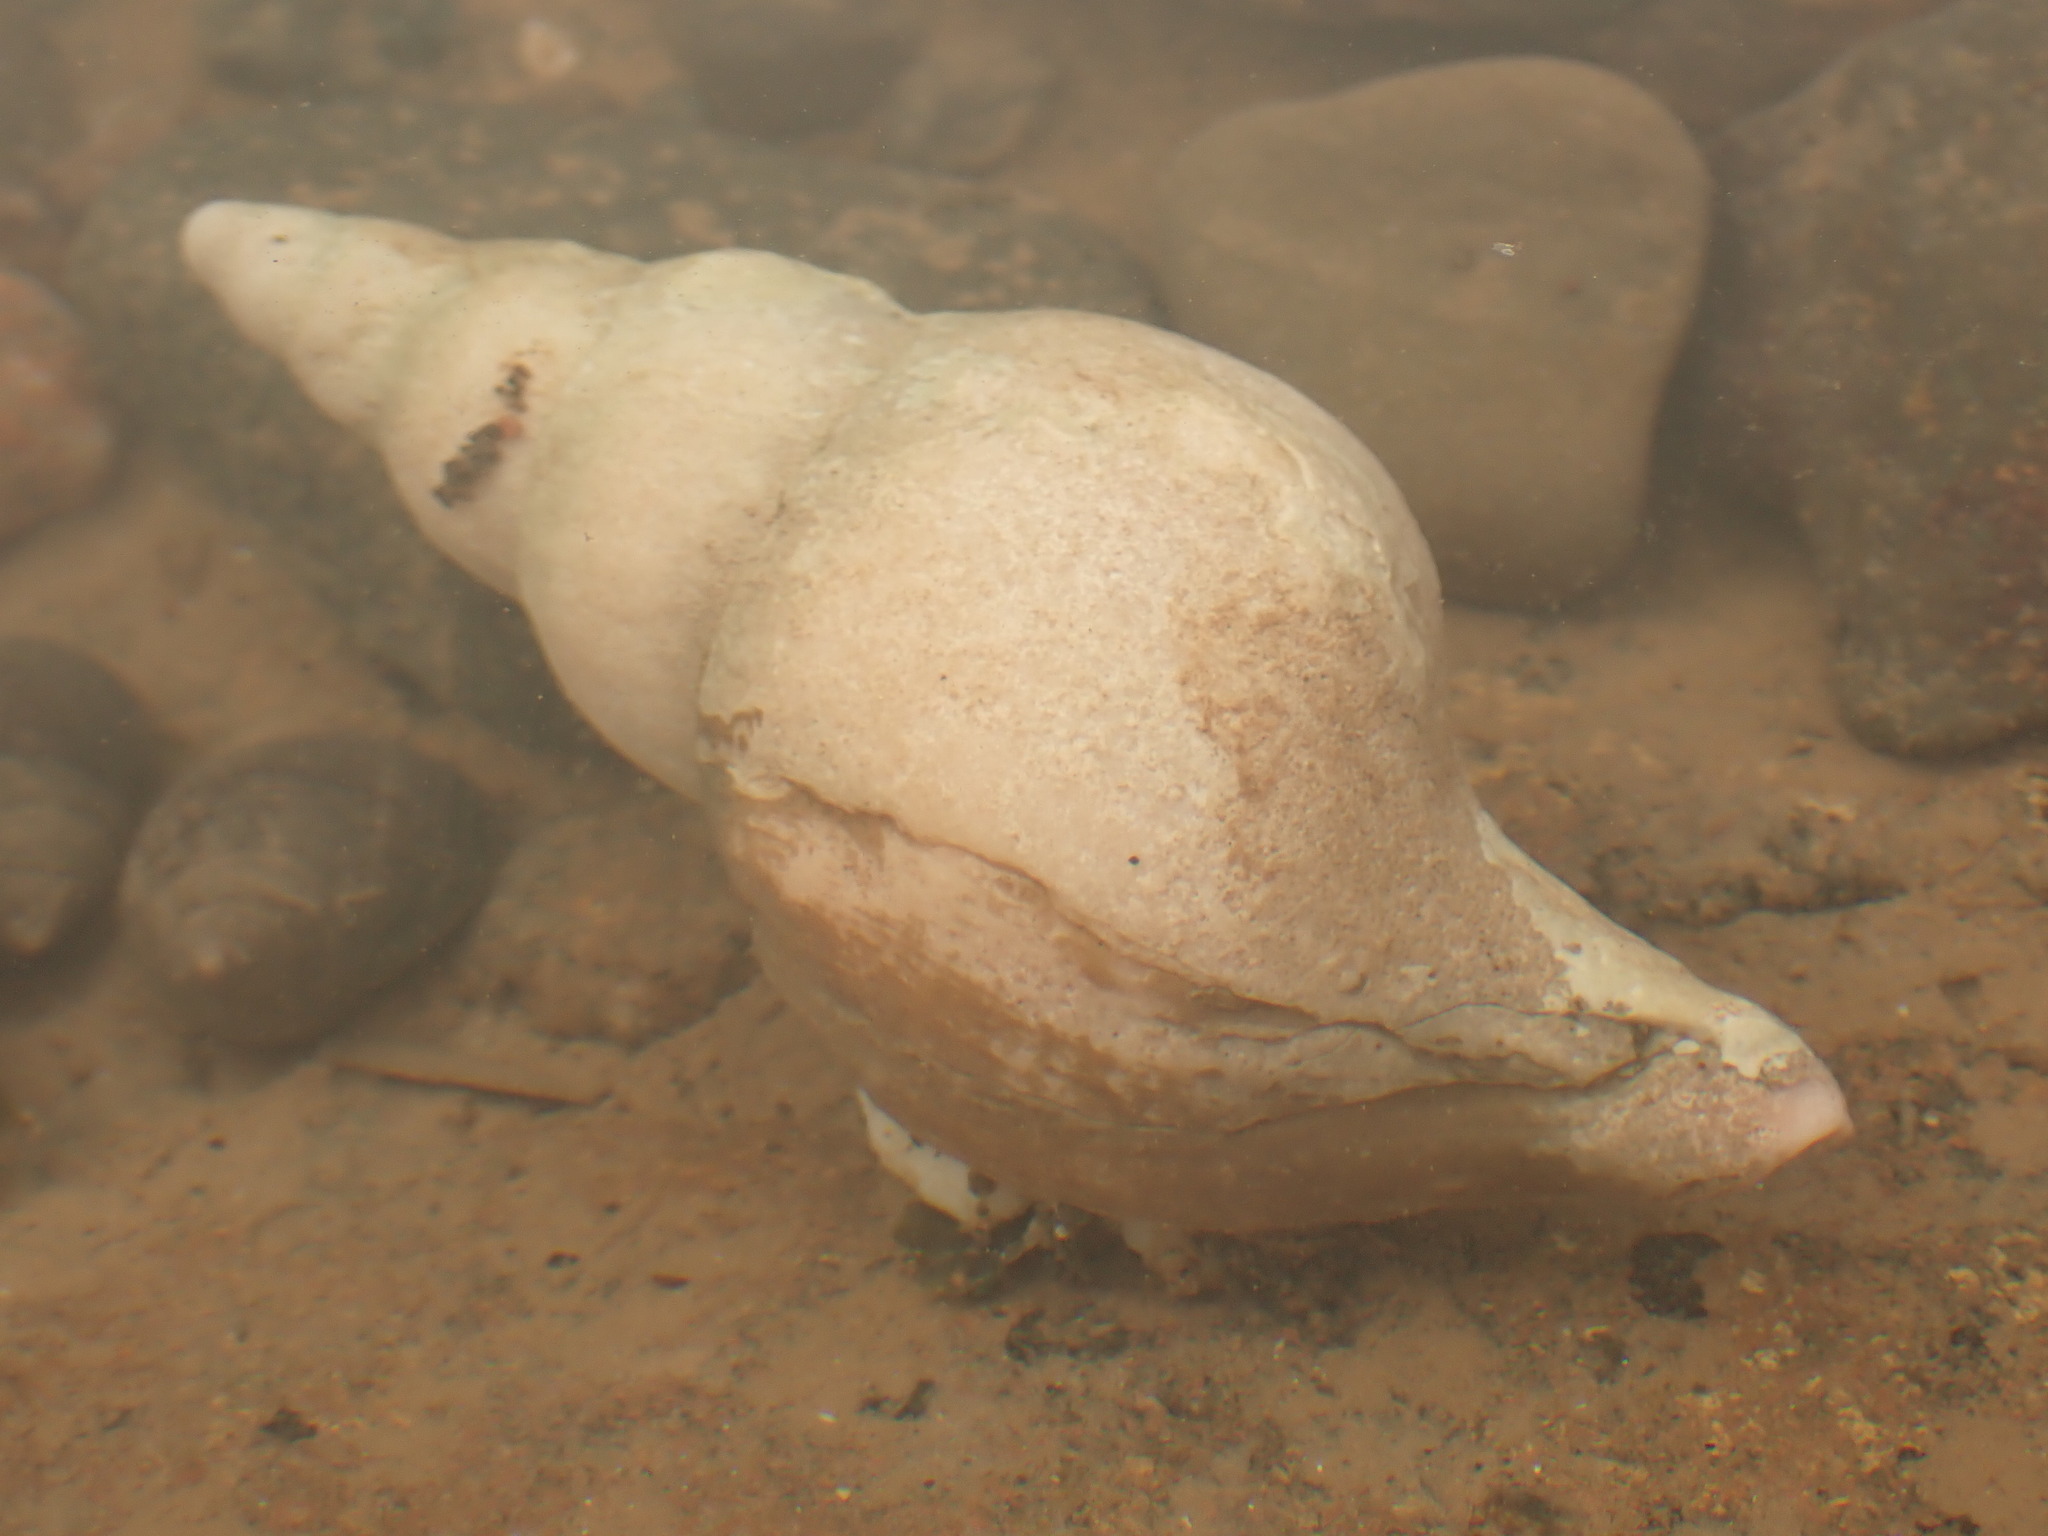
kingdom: Animalia
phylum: Mollusca
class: Gastropoda
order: Neogastropoda
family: Colidae
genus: Colus
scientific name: Colus stimpsoni
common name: Stimpson's colus
